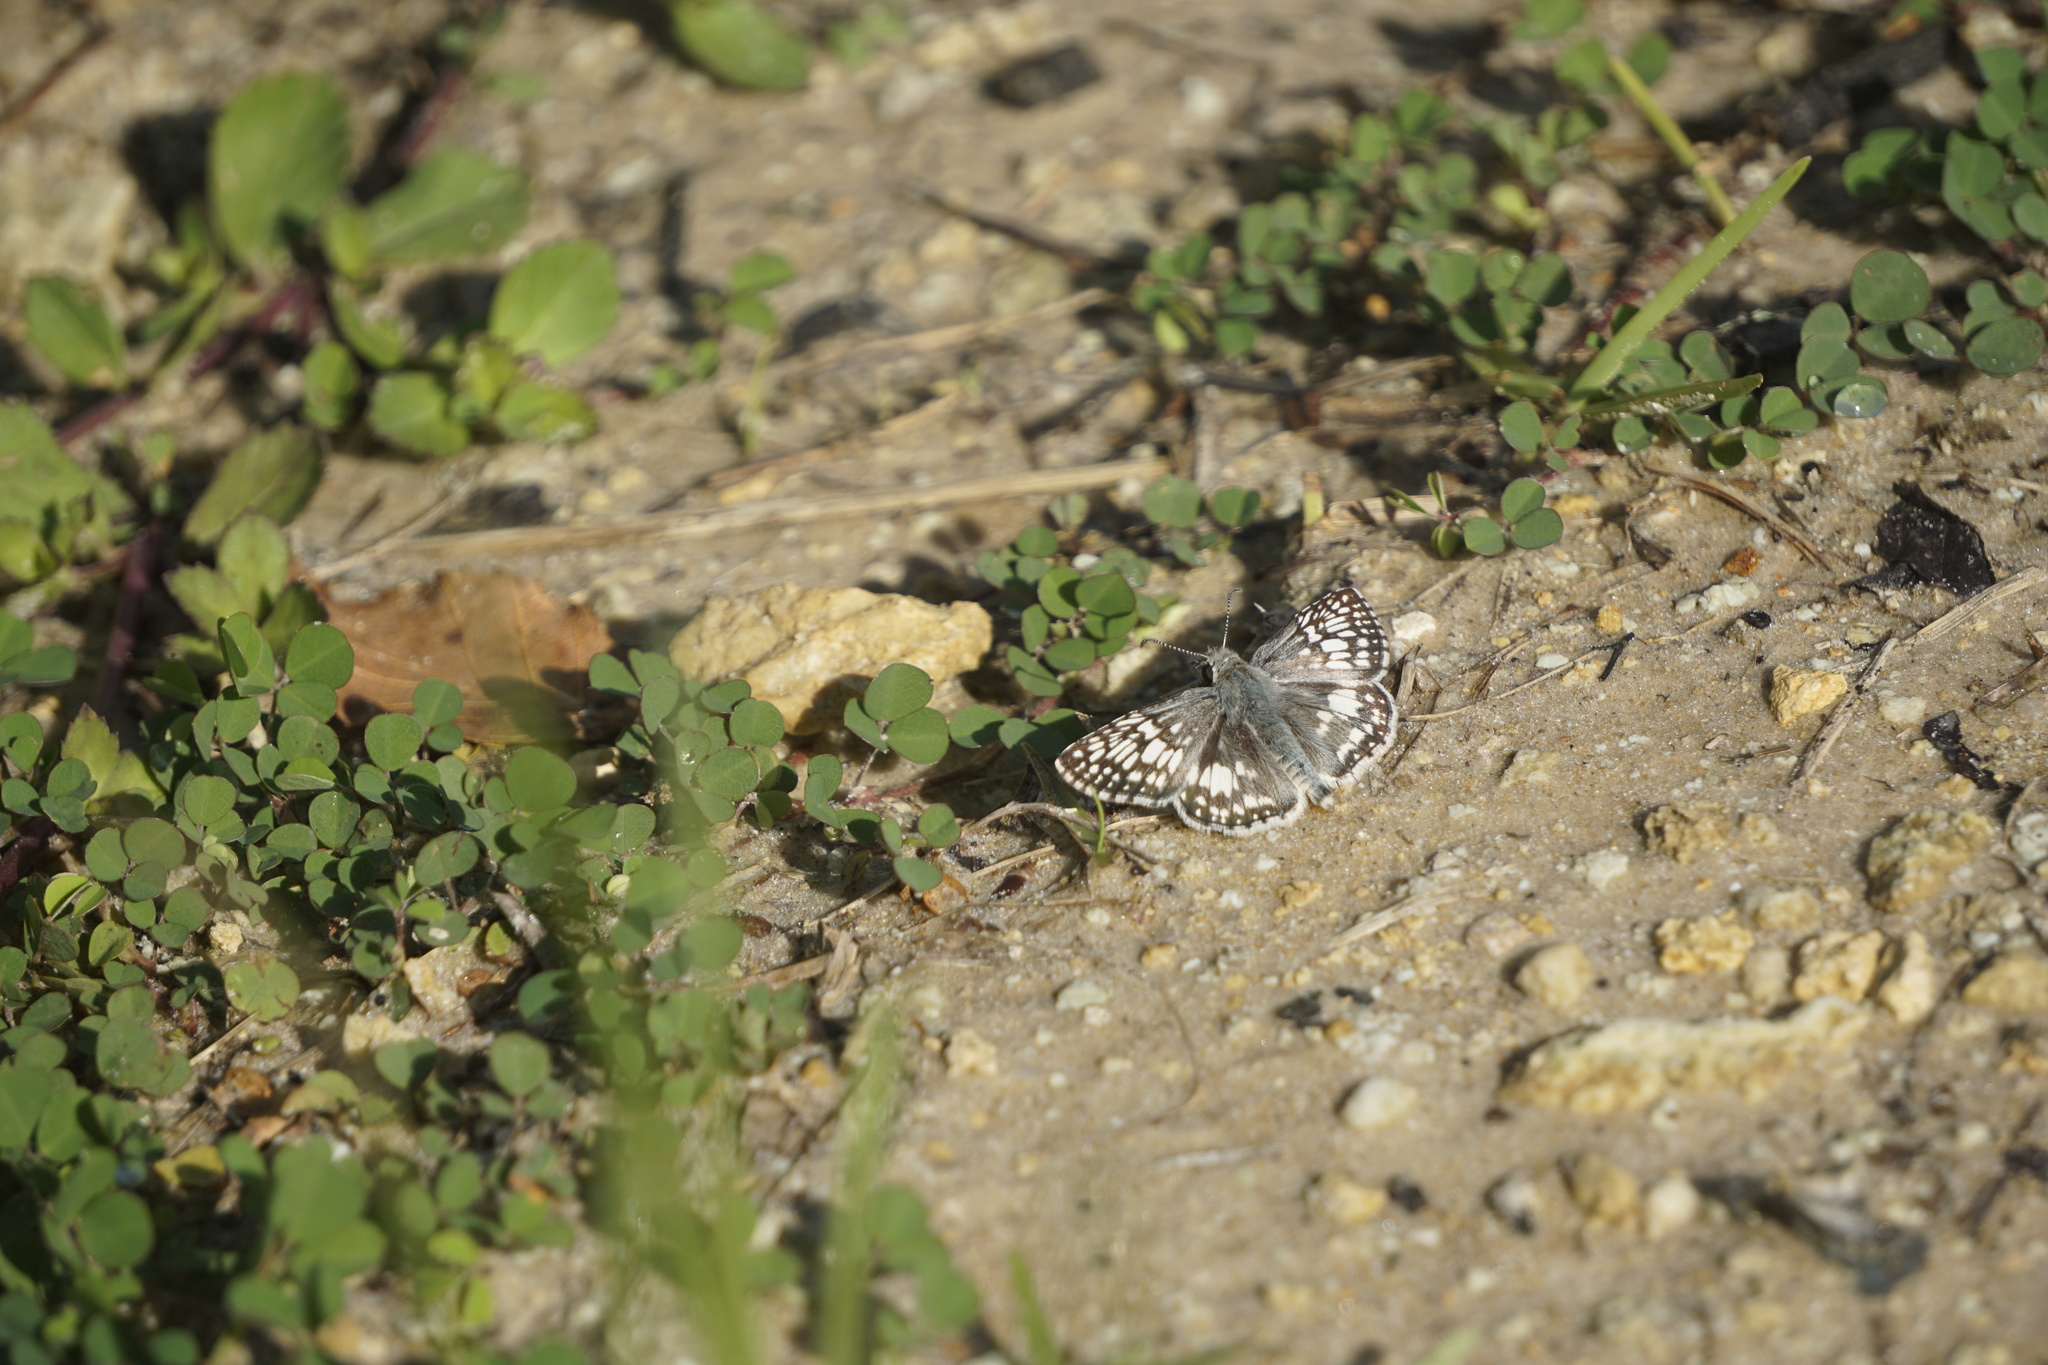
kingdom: Animalia
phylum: Arthropoda
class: Insecta
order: Lepidoptera
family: Hesperiidae
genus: Burnsius
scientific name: Burnsius albezens
